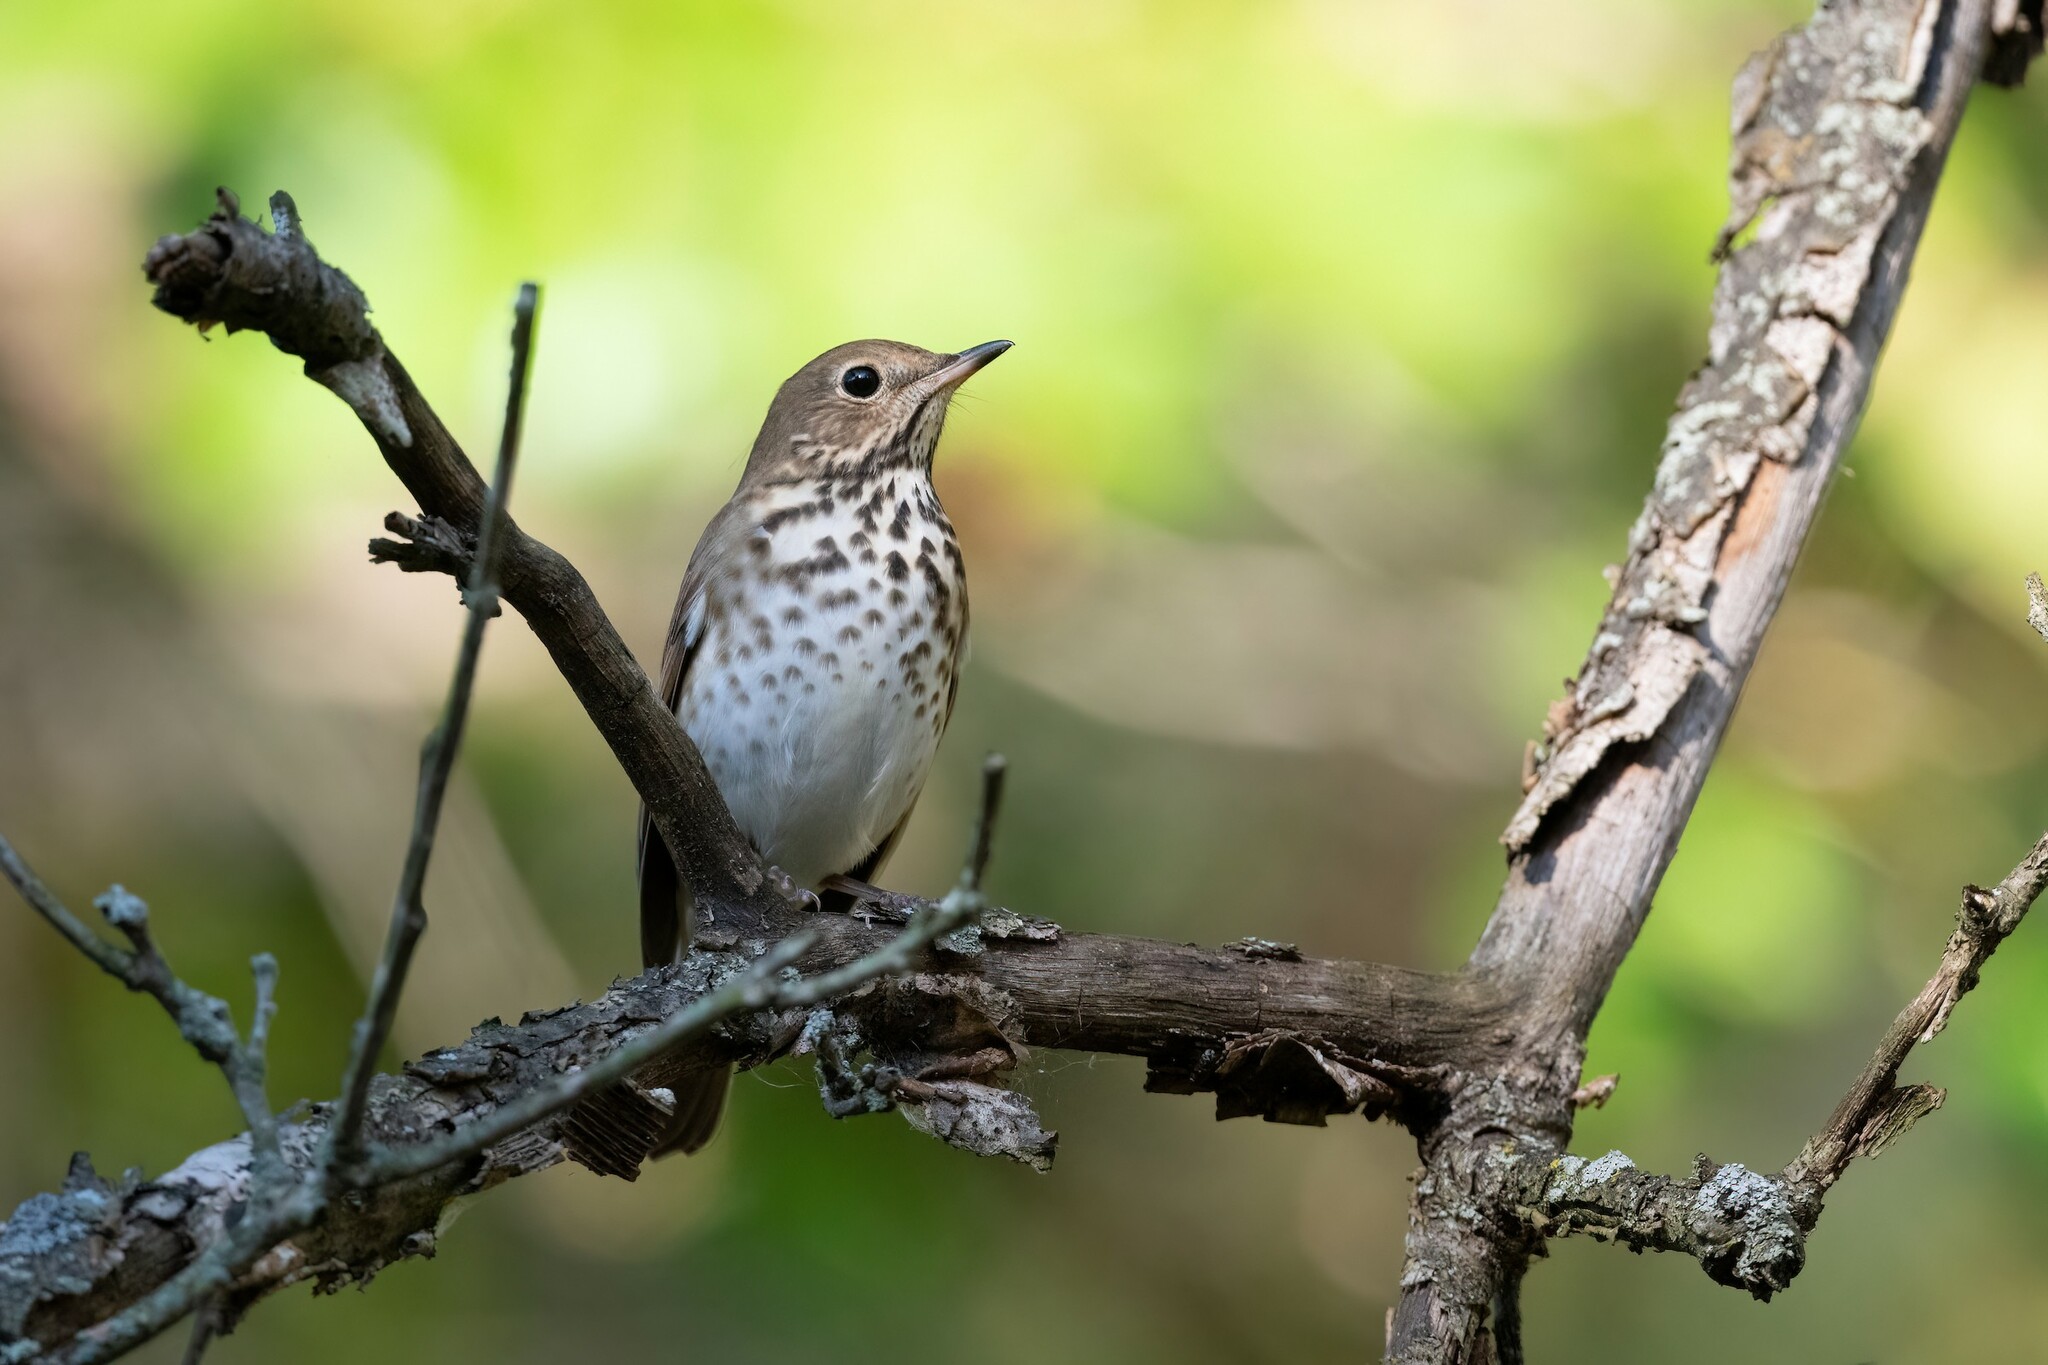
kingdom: Animalia
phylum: Chordata
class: Aves
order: Passeriformes
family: Turdidae
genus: Catharus
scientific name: Catharus guttatus
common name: Hermit thrush
